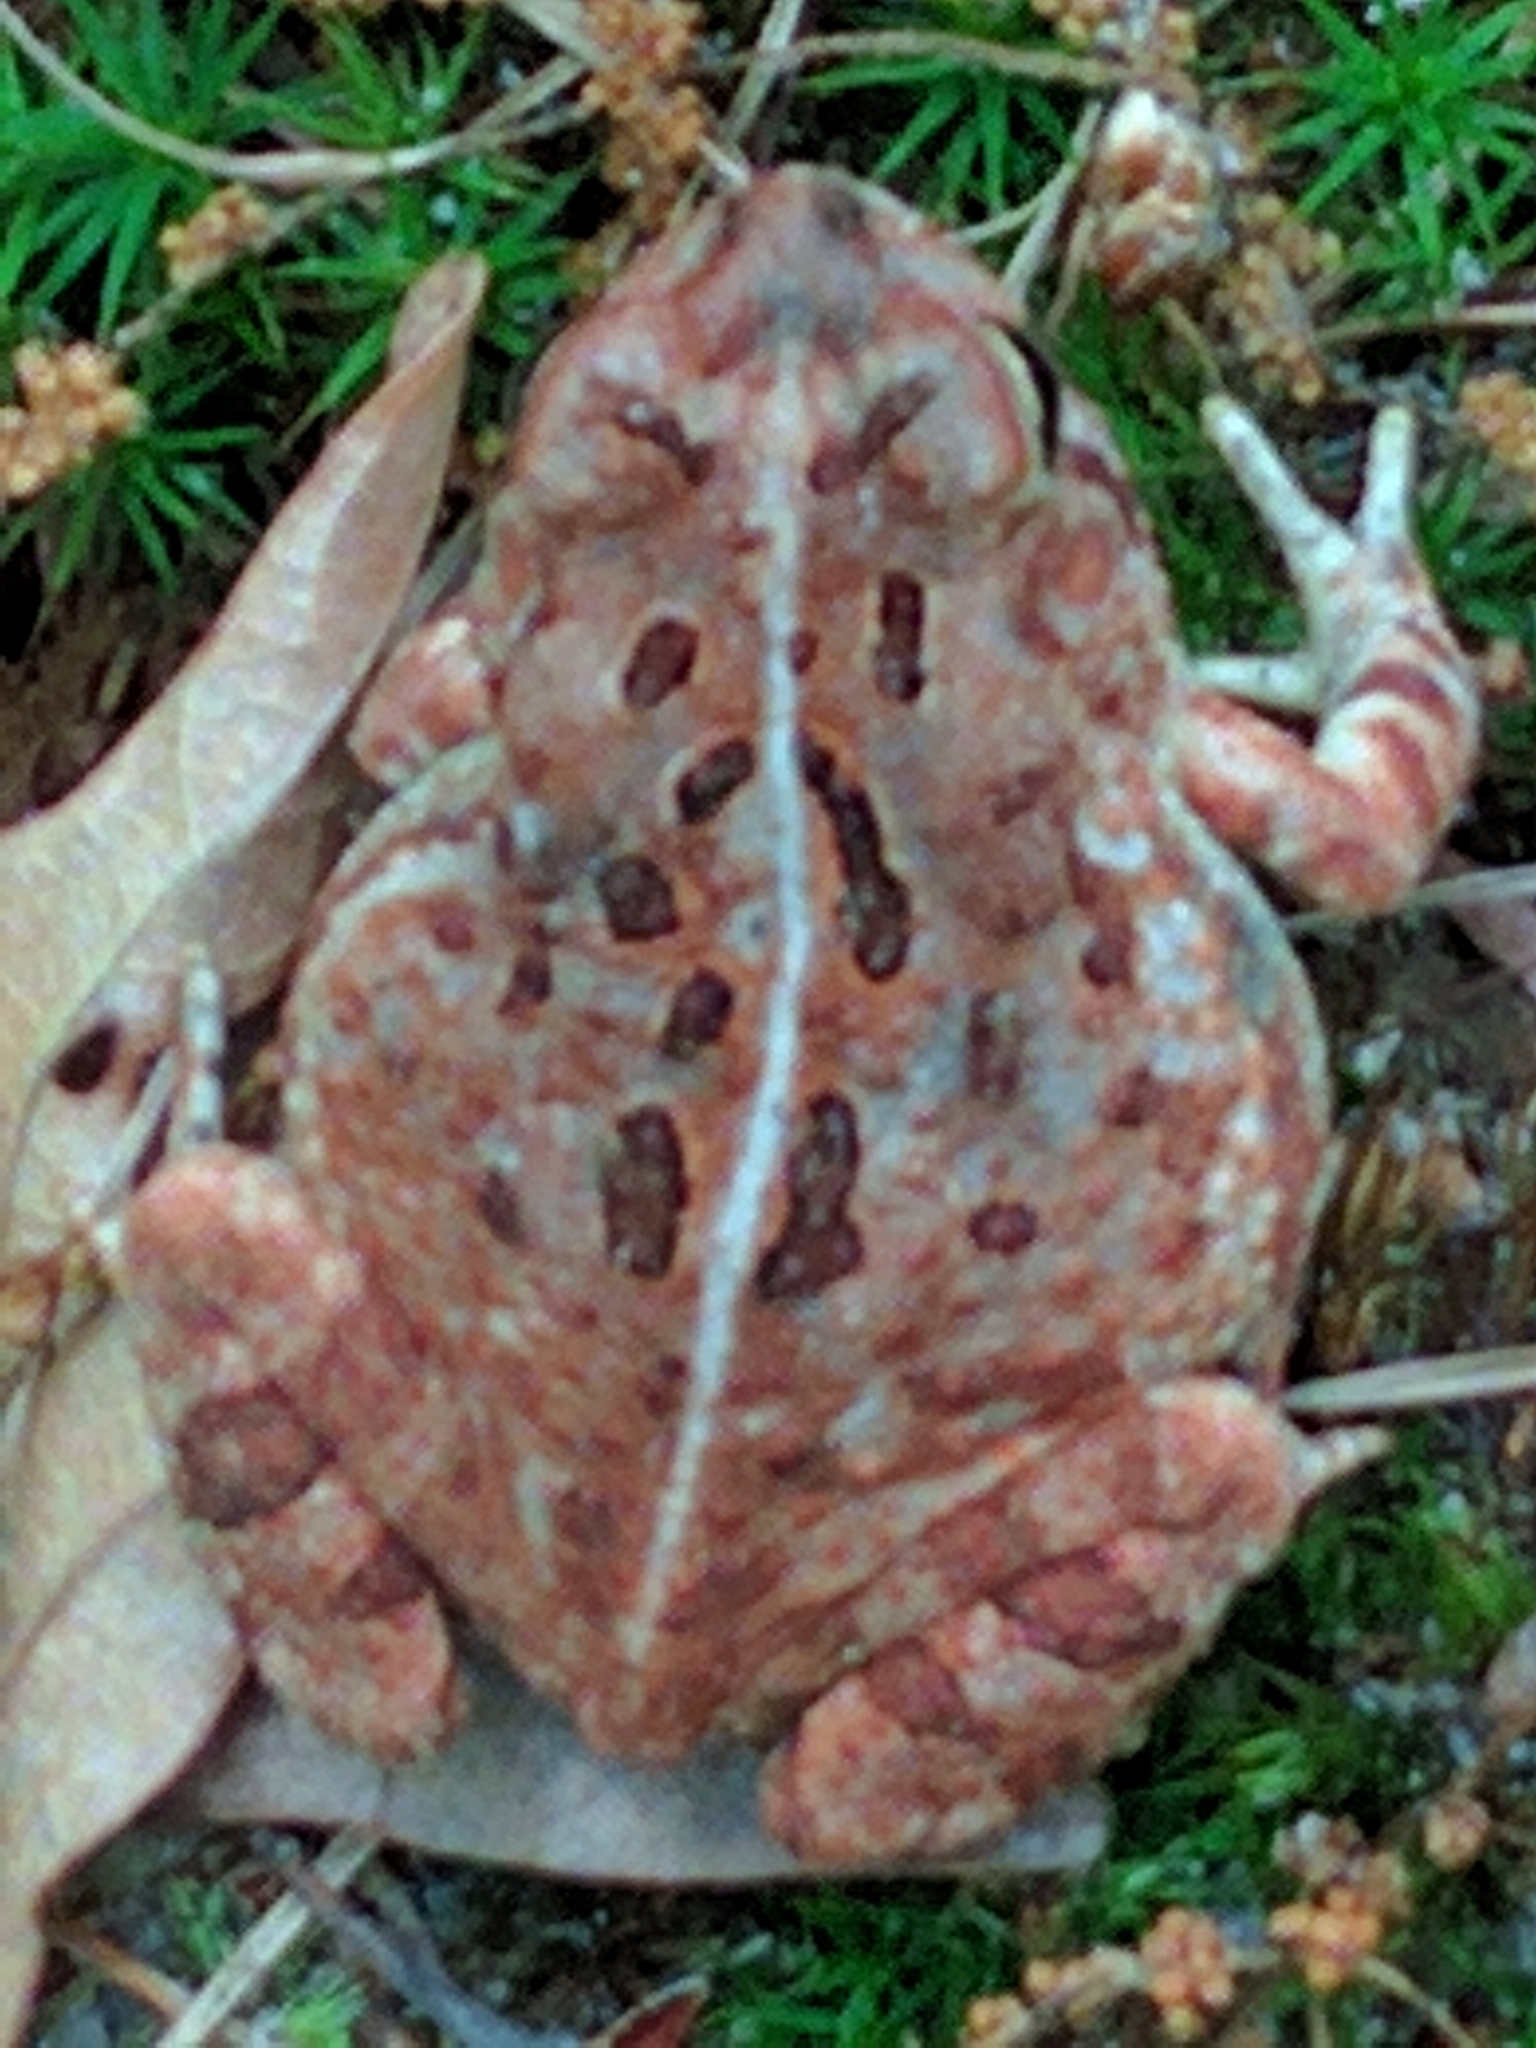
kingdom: Animalia
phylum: Chordata
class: Amphibia
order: Anura
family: Bufonidae
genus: Anaxyrus
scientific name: Anaxyrus fowleri
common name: Fowler's toad
